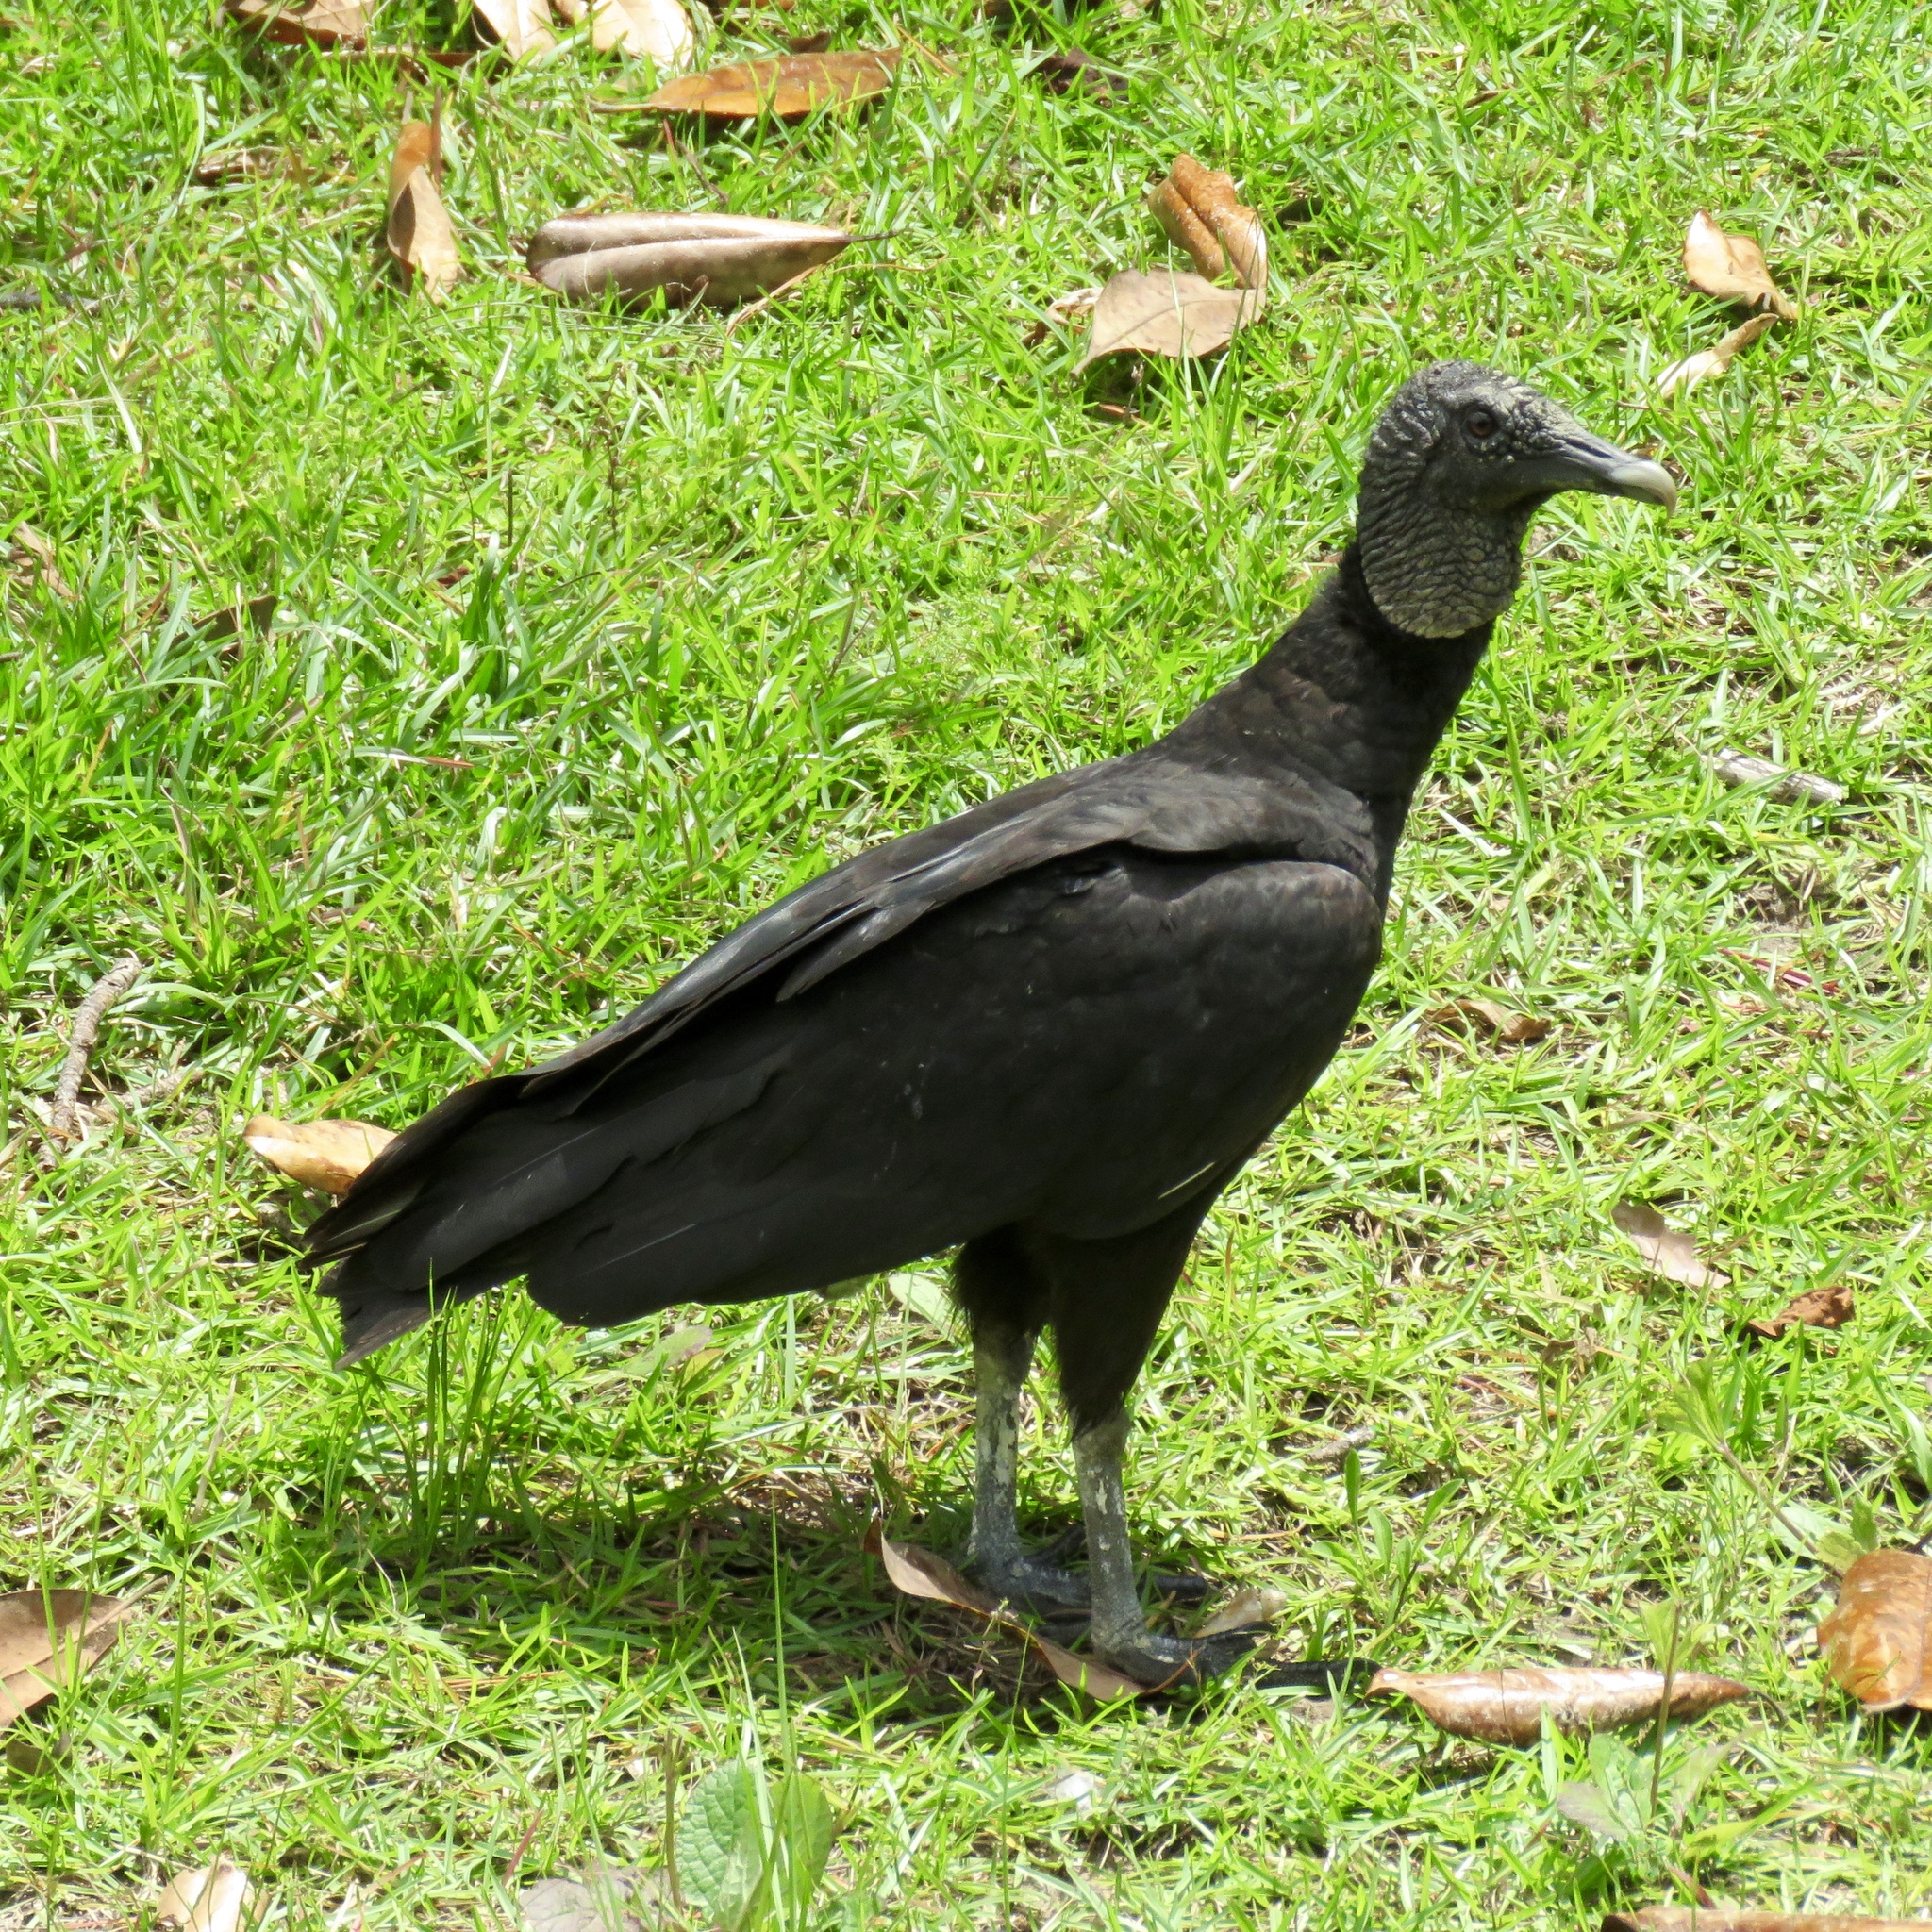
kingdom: Animalia
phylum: Chordata
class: Aves
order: Accipitriformes
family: Cathartidae
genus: Coragyps
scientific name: Coragyps atratus
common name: Black vulture
